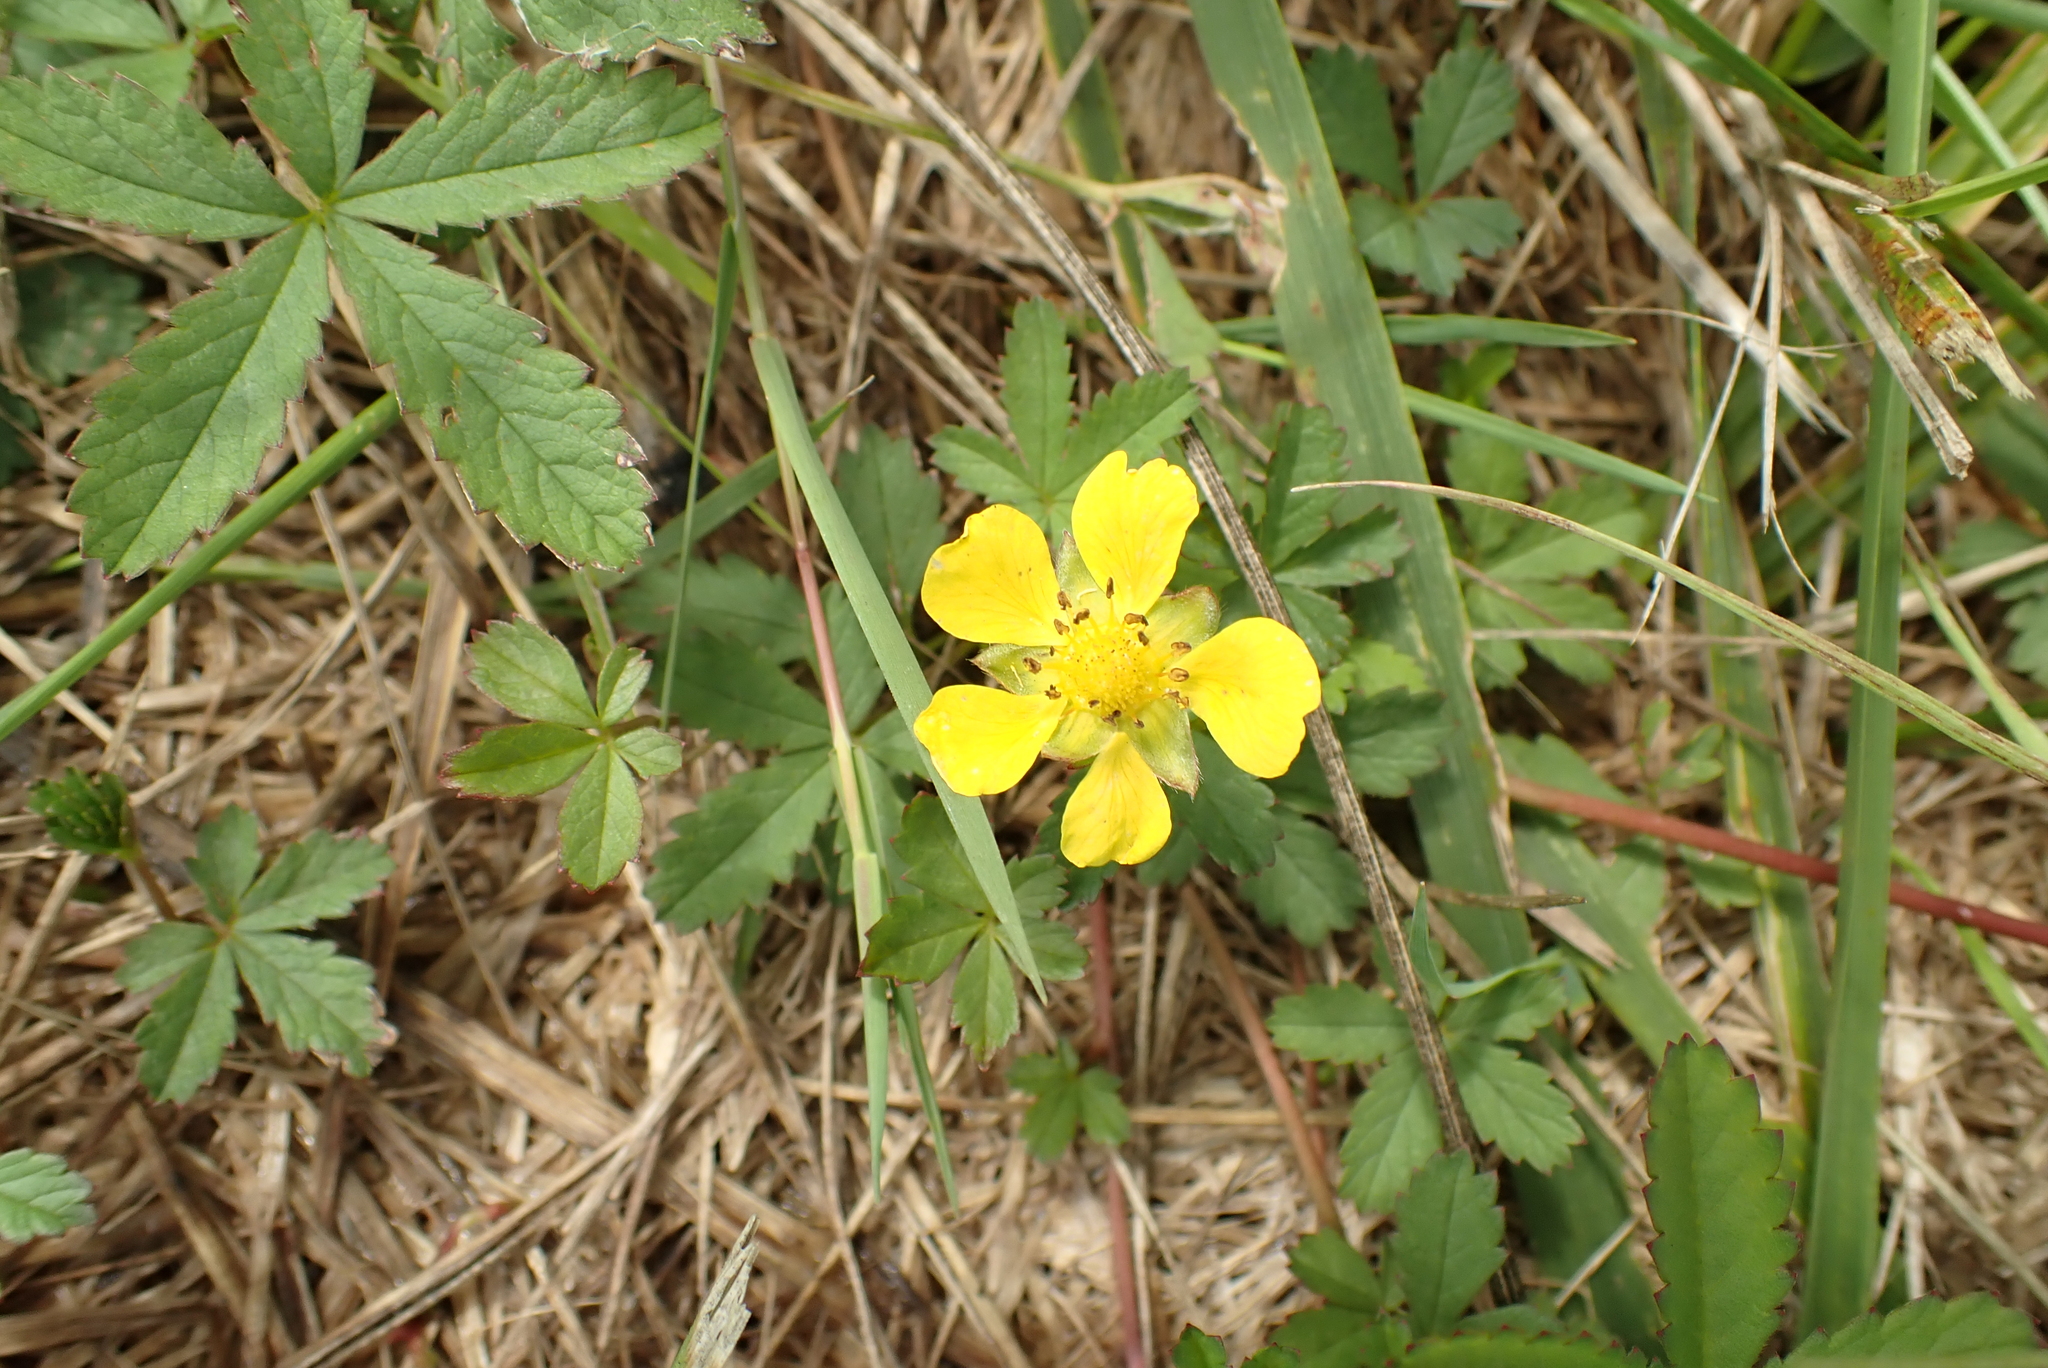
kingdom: Plantae
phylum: Tracheophyta
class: Magnoliopsida
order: Rosales
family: Rosaceae
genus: Potentilla
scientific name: Potentilla reptans
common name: Creeping cinquefoil
